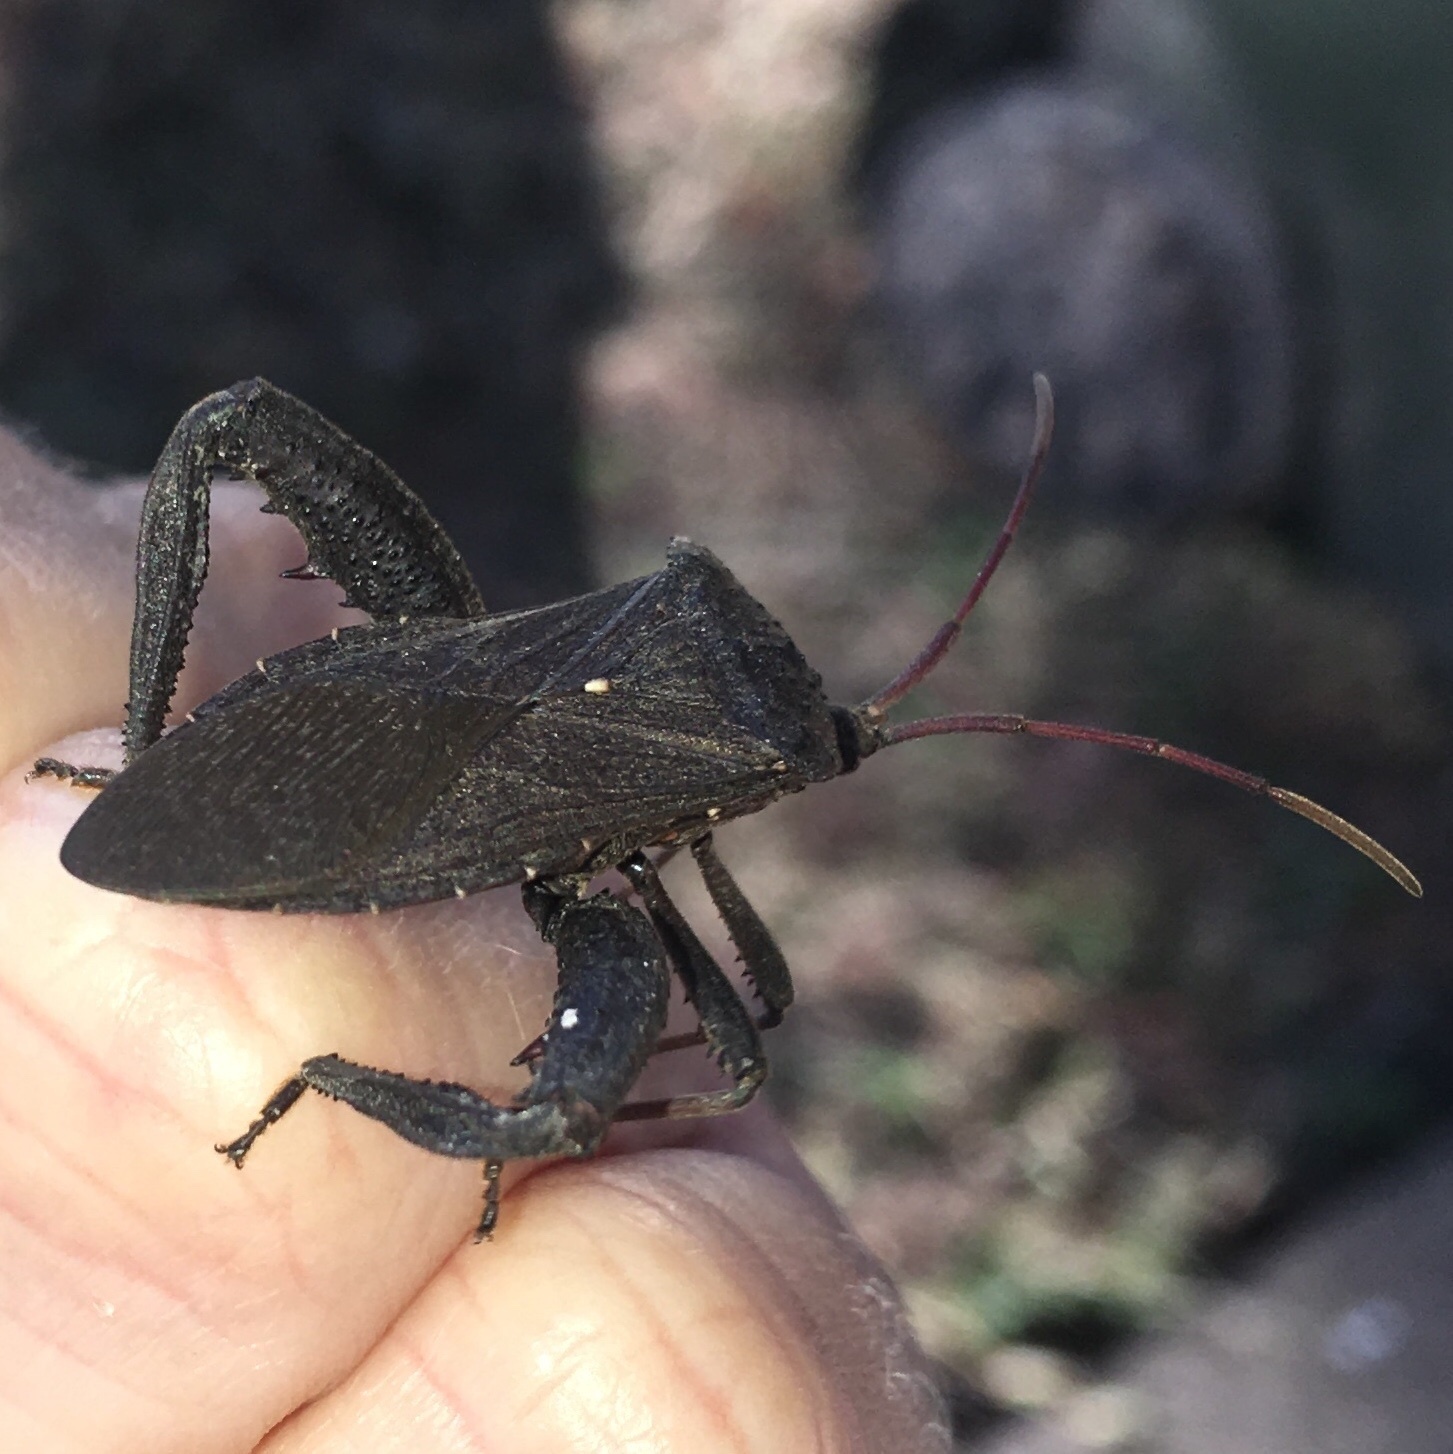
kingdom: Animalia
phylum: Arthropoda
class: Insecta
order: Hemiptera
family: Coreidae
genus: Acanthocephala
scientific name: Acanthocephala femorata
